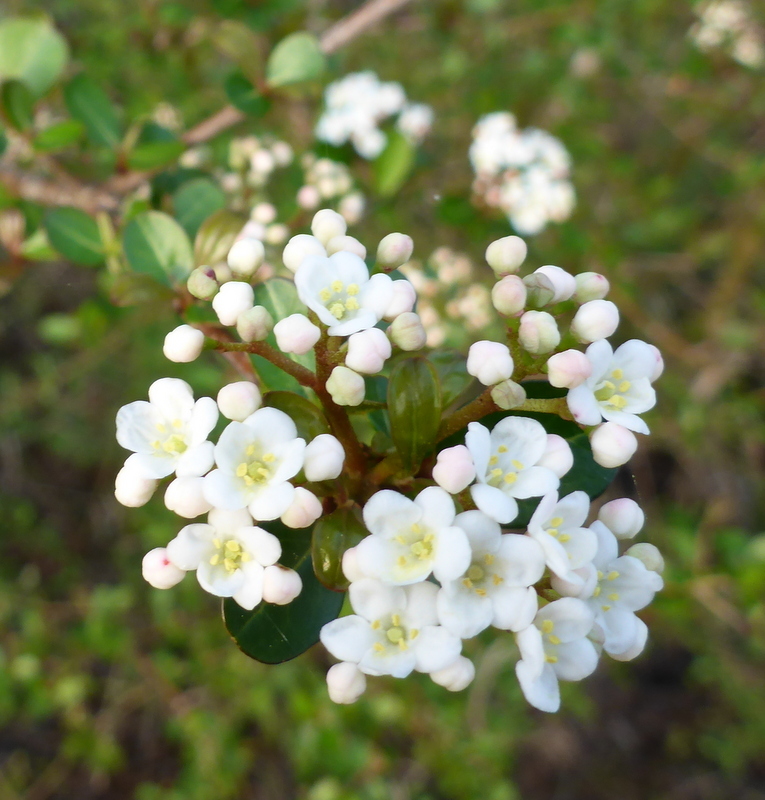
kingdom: Plantae
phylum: Tracheophyta
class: Magnoliopsida
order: Dipsacales
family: Viburnaceae
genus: Viburnum
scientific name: Viburnum obovatum
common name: Walter's viburnum
